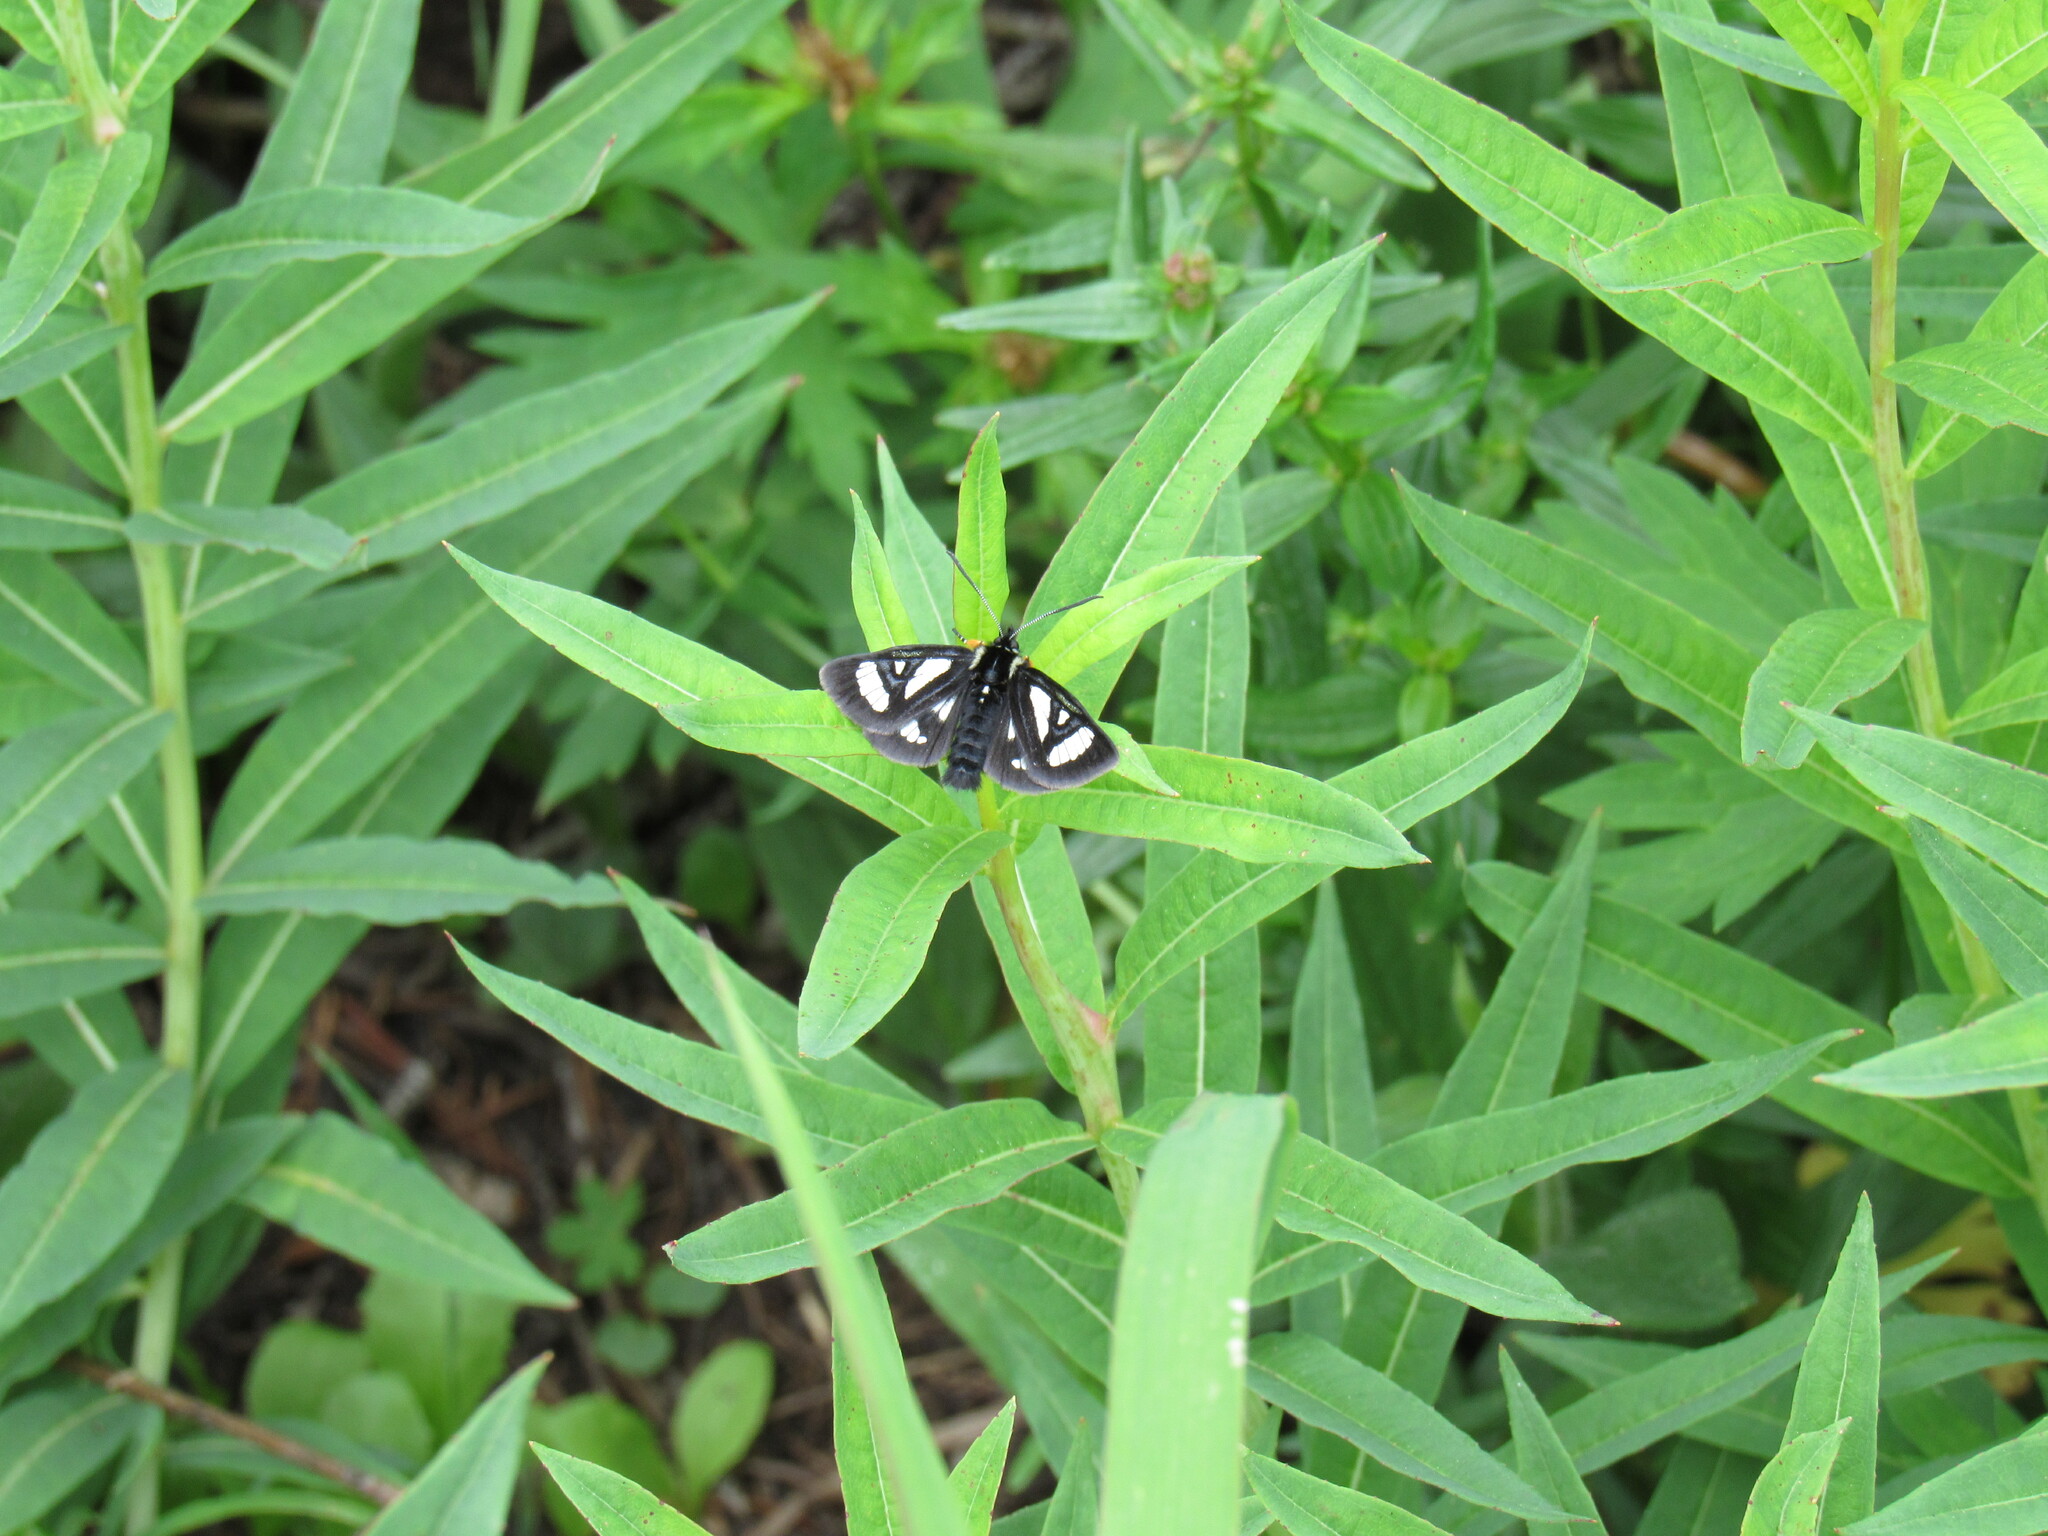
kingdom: Animalia
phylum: Arthropoda
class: Insecta
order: Lepidoptera
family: Noctuidae
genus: Alypia
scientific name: Alypia maccullochii
